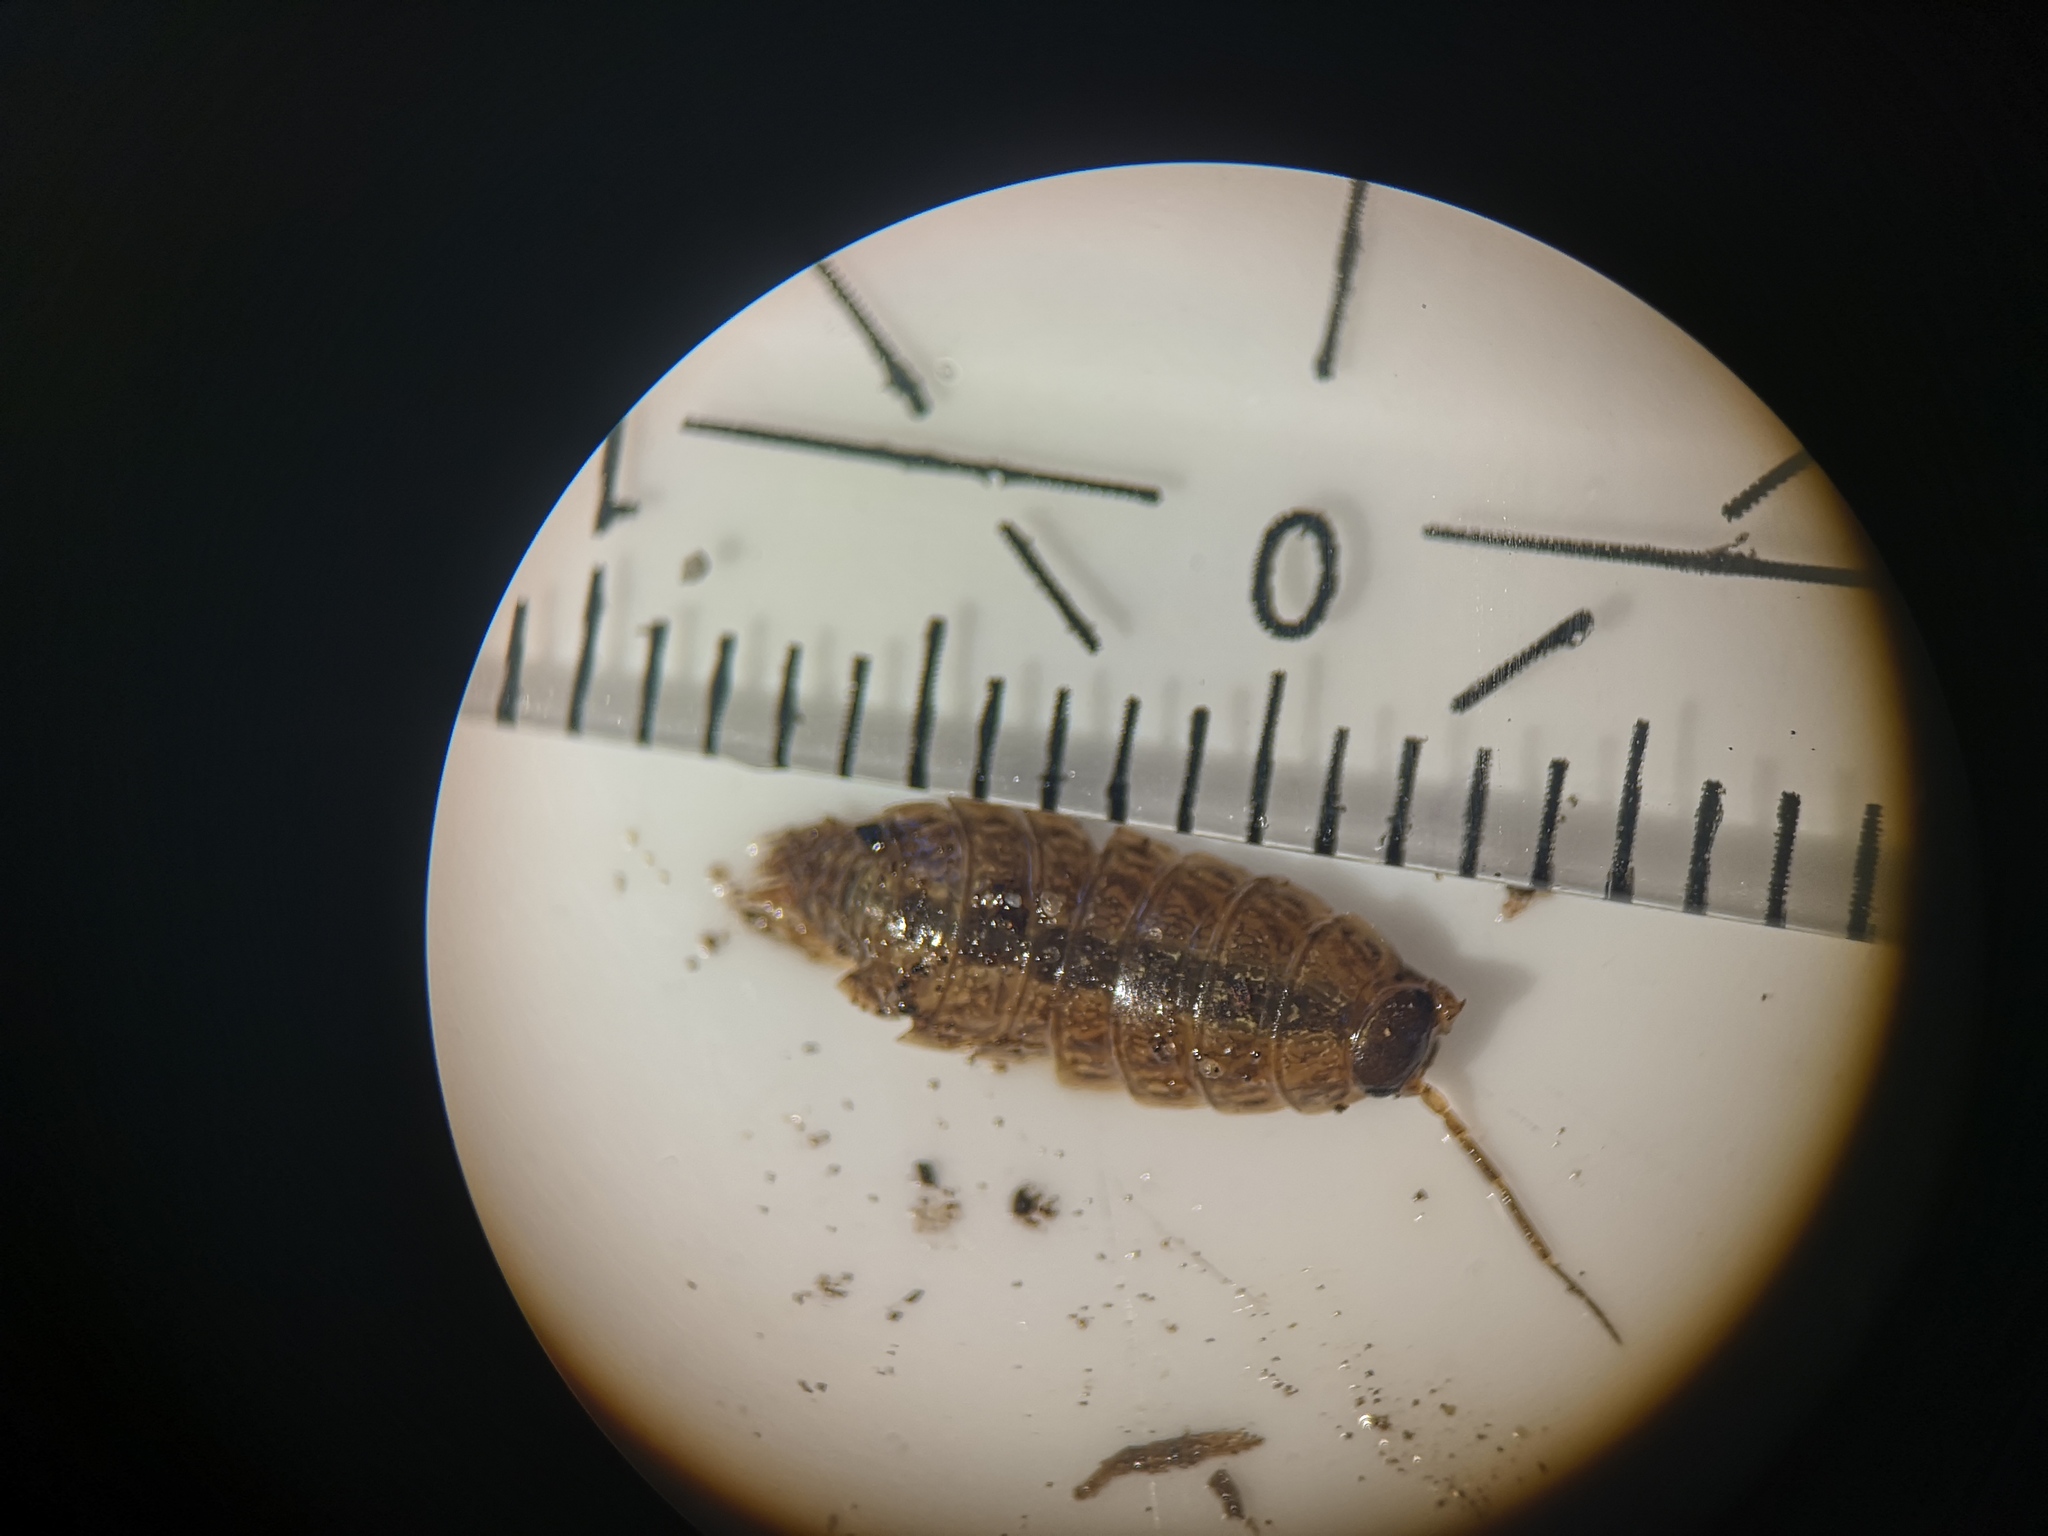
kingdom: Animalia
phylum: Arthropoda
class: Malacostraca
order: Isopoda
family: Philosciidae
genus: Philoscia
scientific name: Philoscia muscorum
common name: Common striped woodlouse
